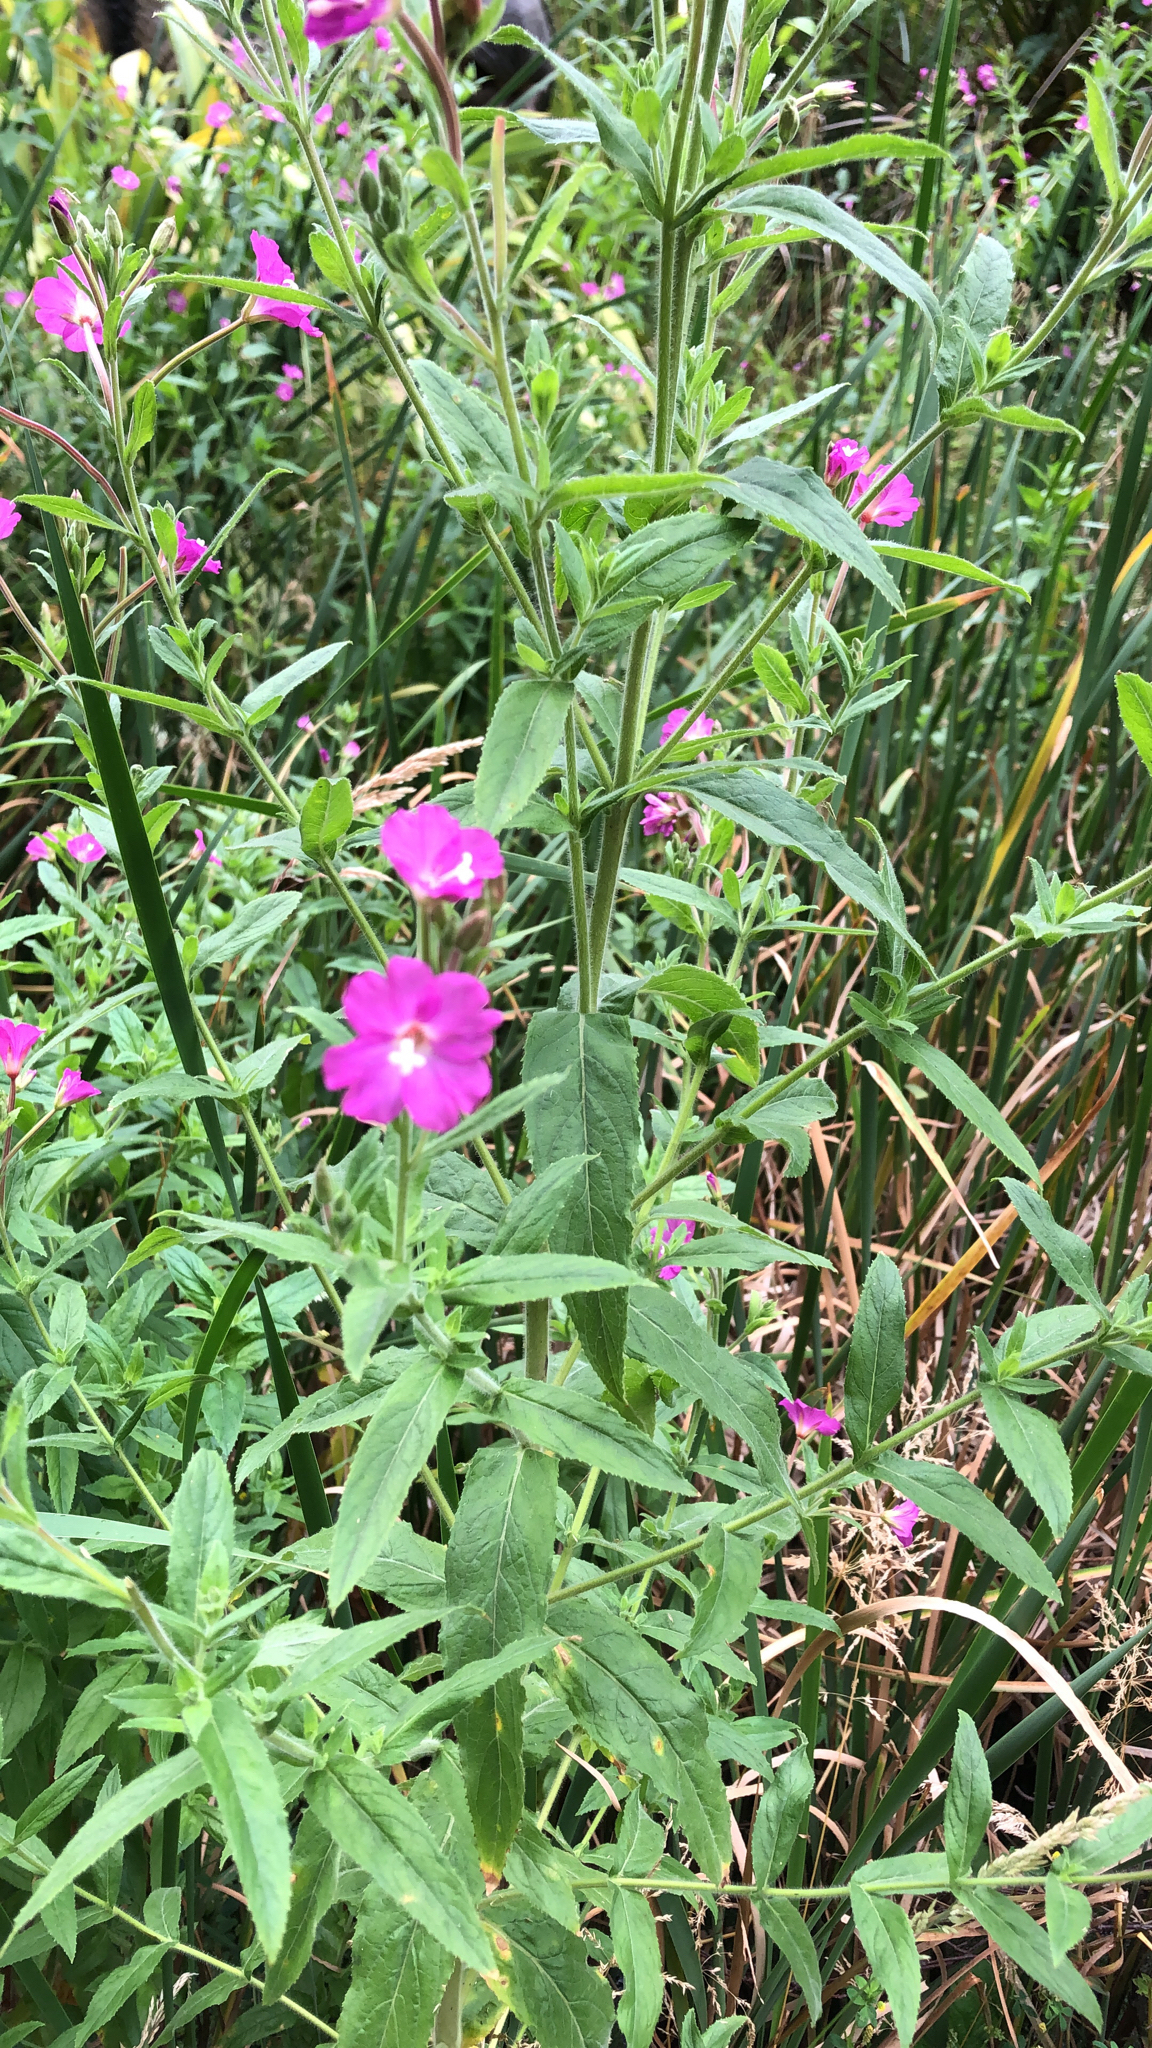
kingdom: Plantae
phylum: Tracheophyta
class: Magnoliopsida
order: Myrtales
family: Onagraceae
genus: Epilobium
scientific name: Epilobium hirsutum
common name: Great willowherb
